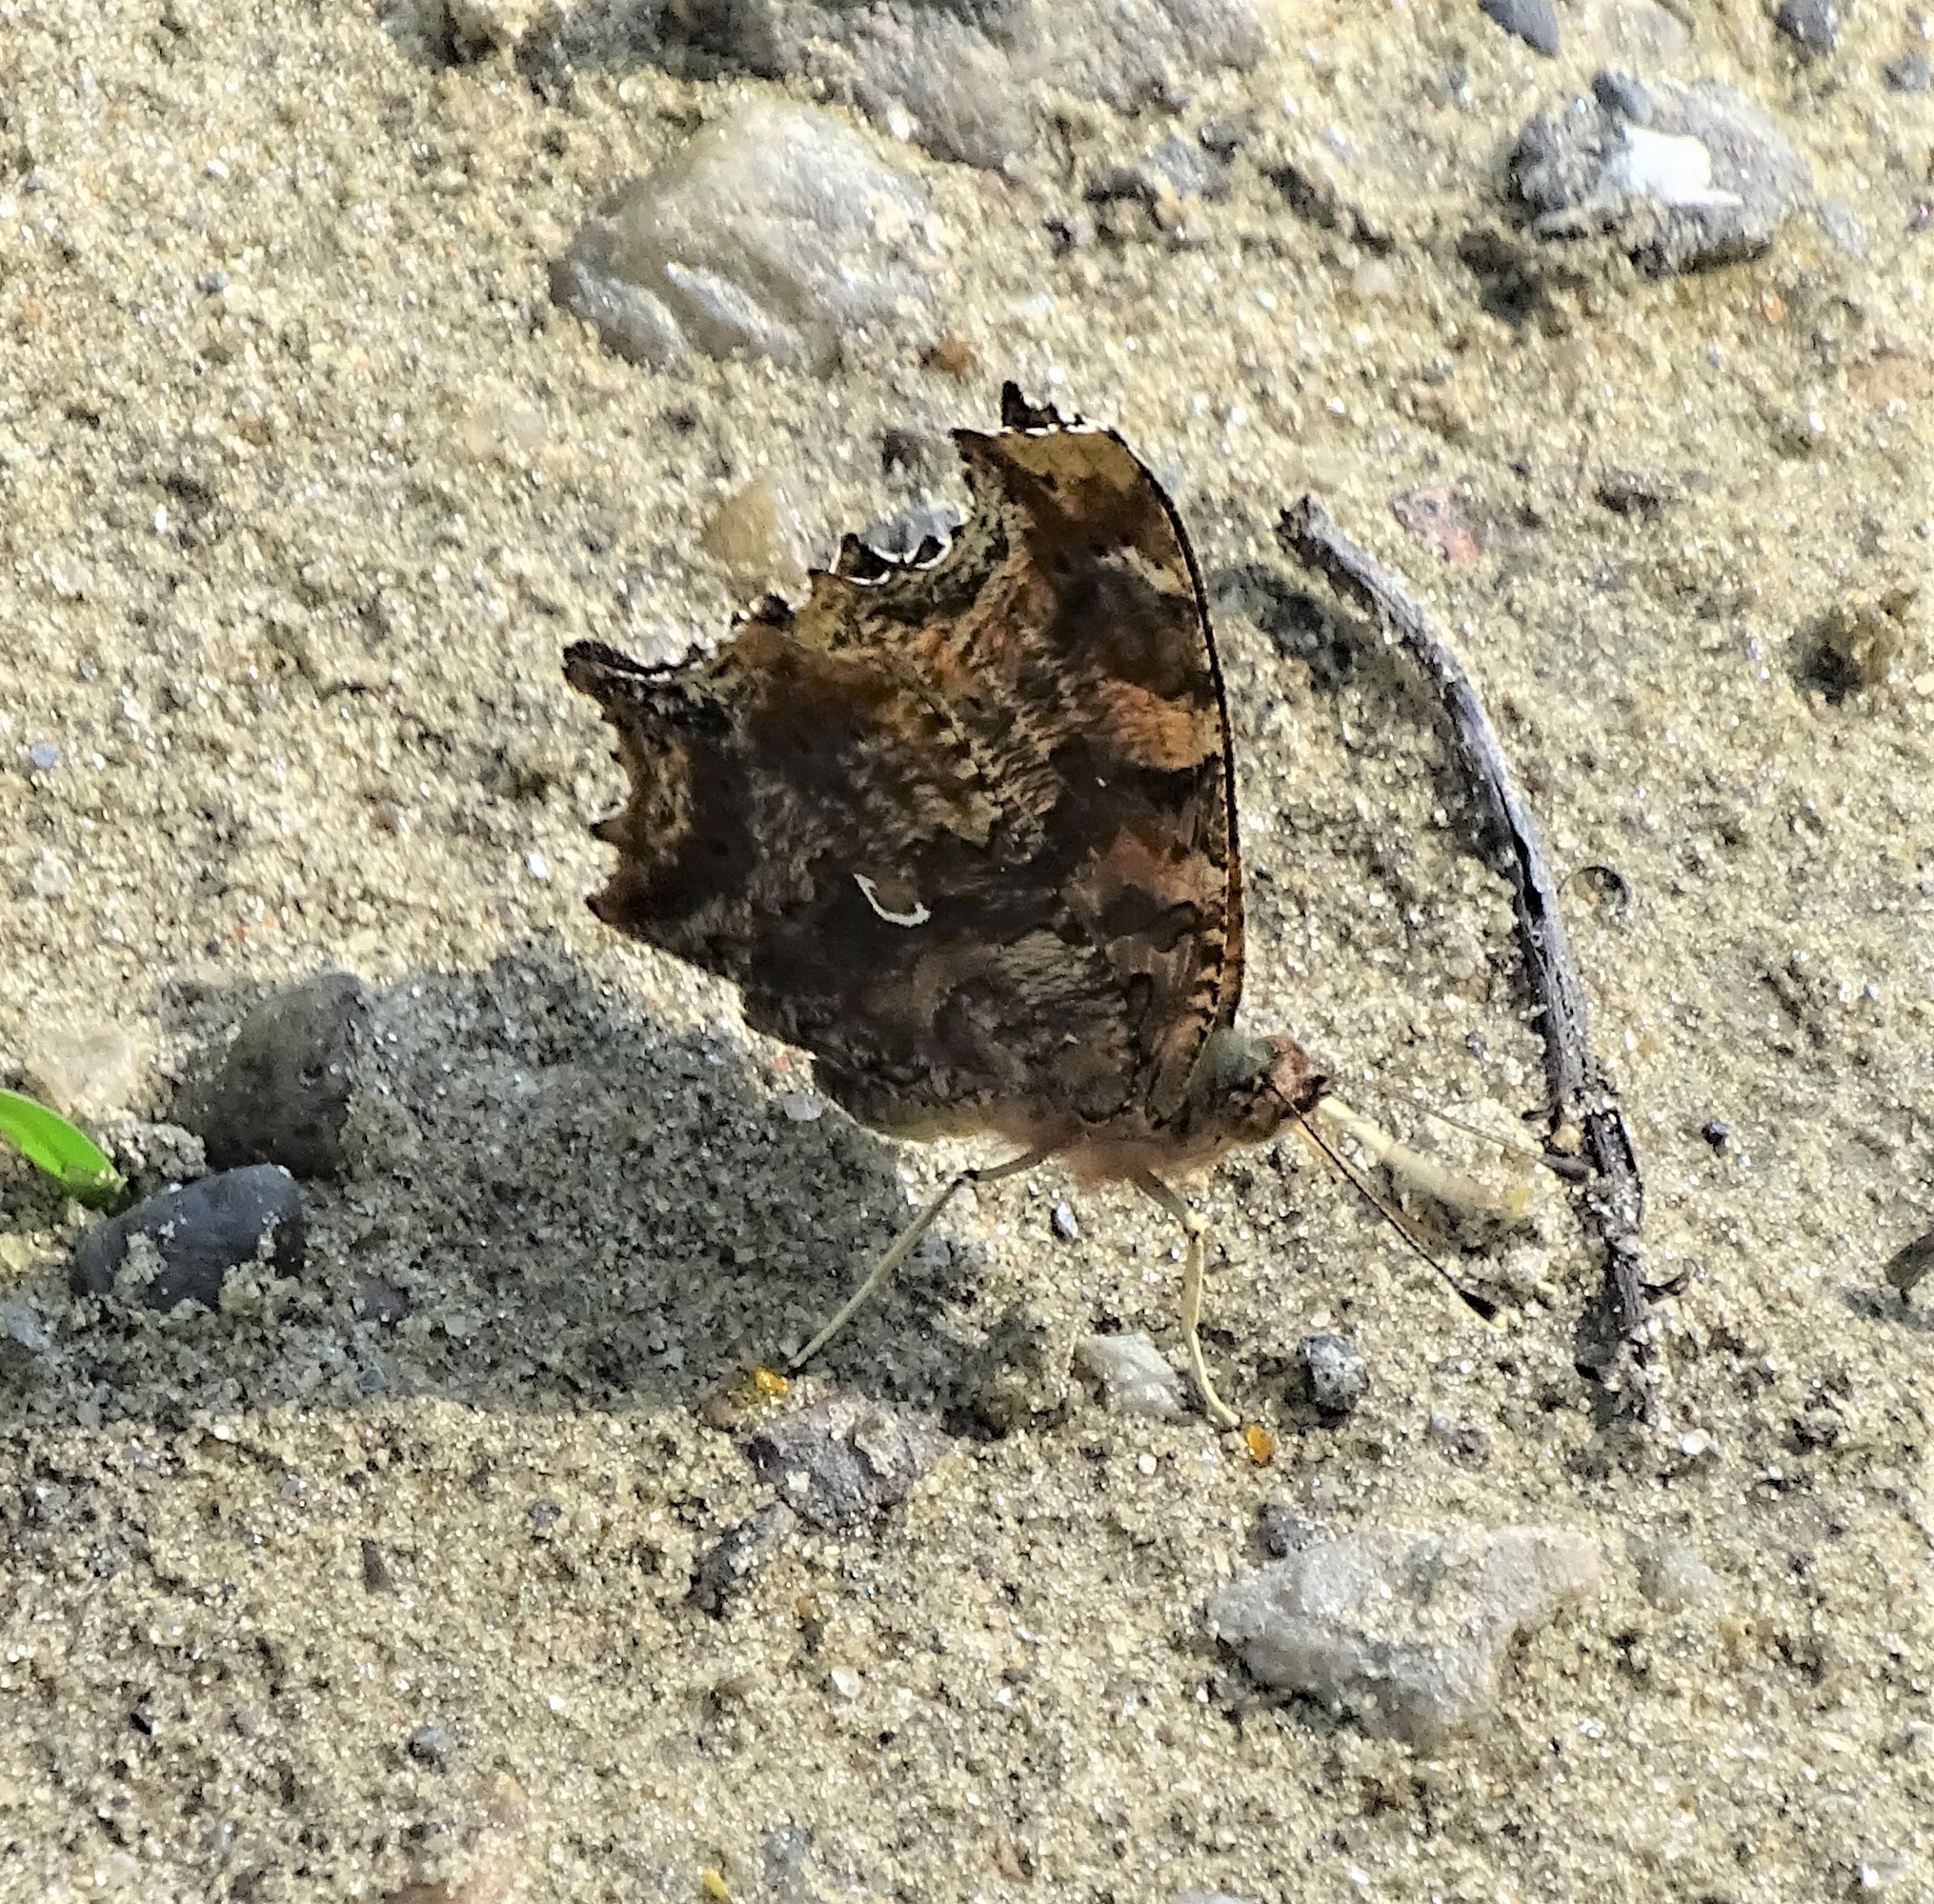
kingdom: Animalia
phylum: Arthropoda
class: Insecta
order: Lepidoptera
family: Nymphalidae
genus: Polygonia
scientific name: Polygonia comma
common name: Eastern comma
